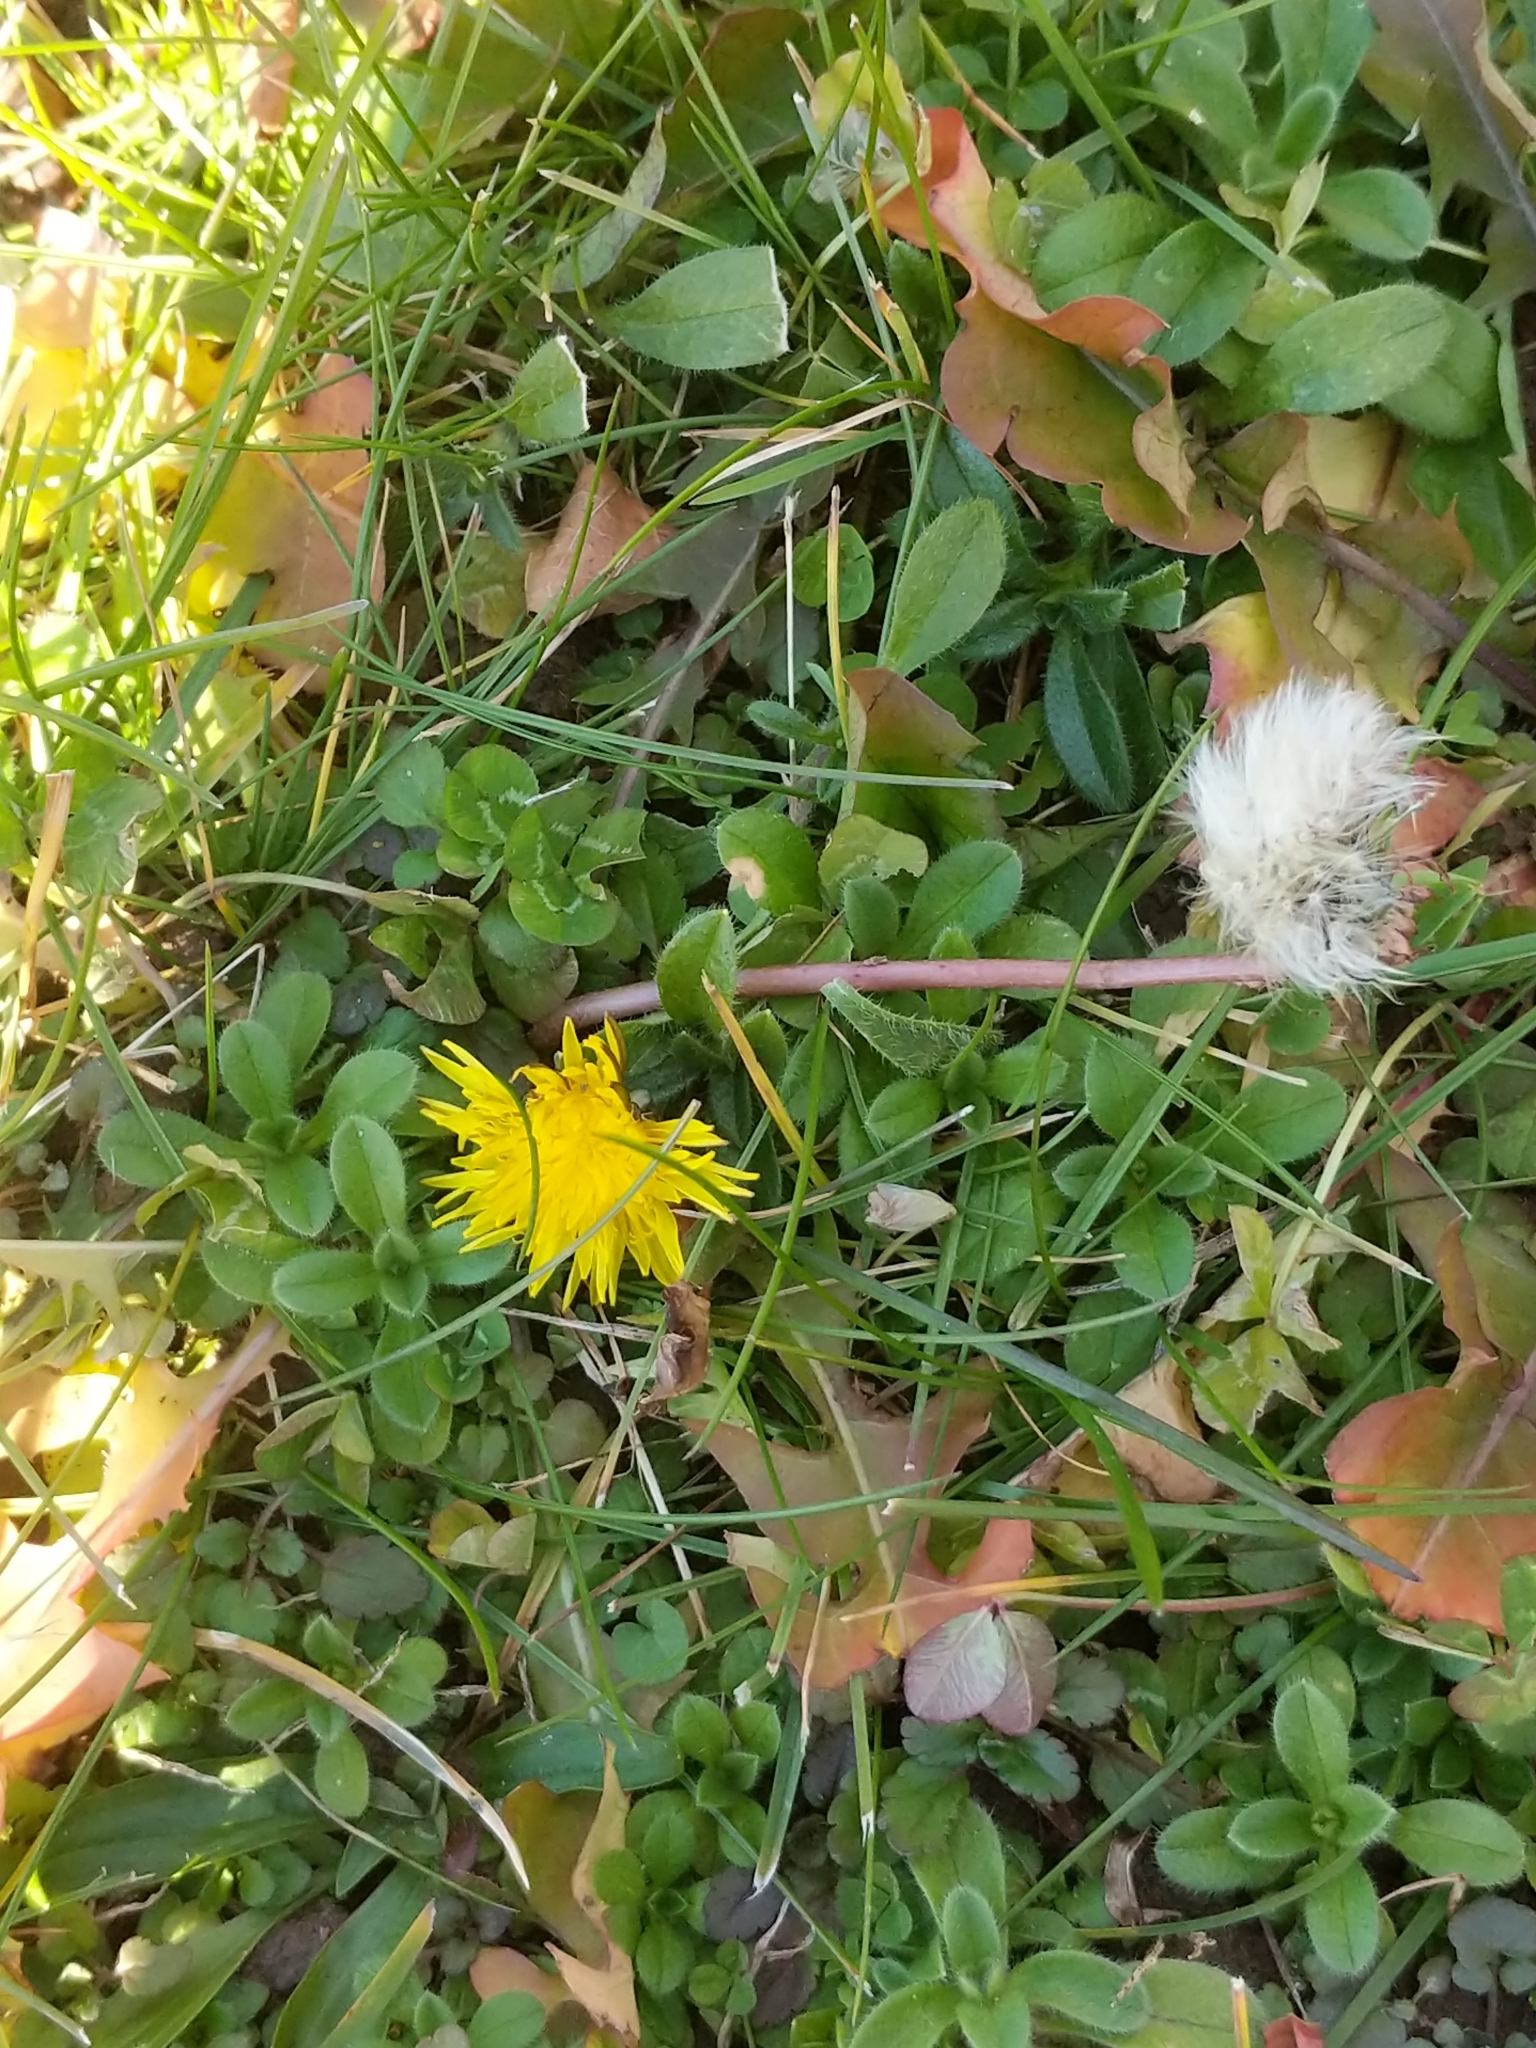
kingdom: Plantae
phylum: Tracheophyta
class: Magnoliopsida
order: Asterales
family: Asteraceae
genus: Taraxacum
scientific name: Taraxacum officinale
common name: Common dandelion
